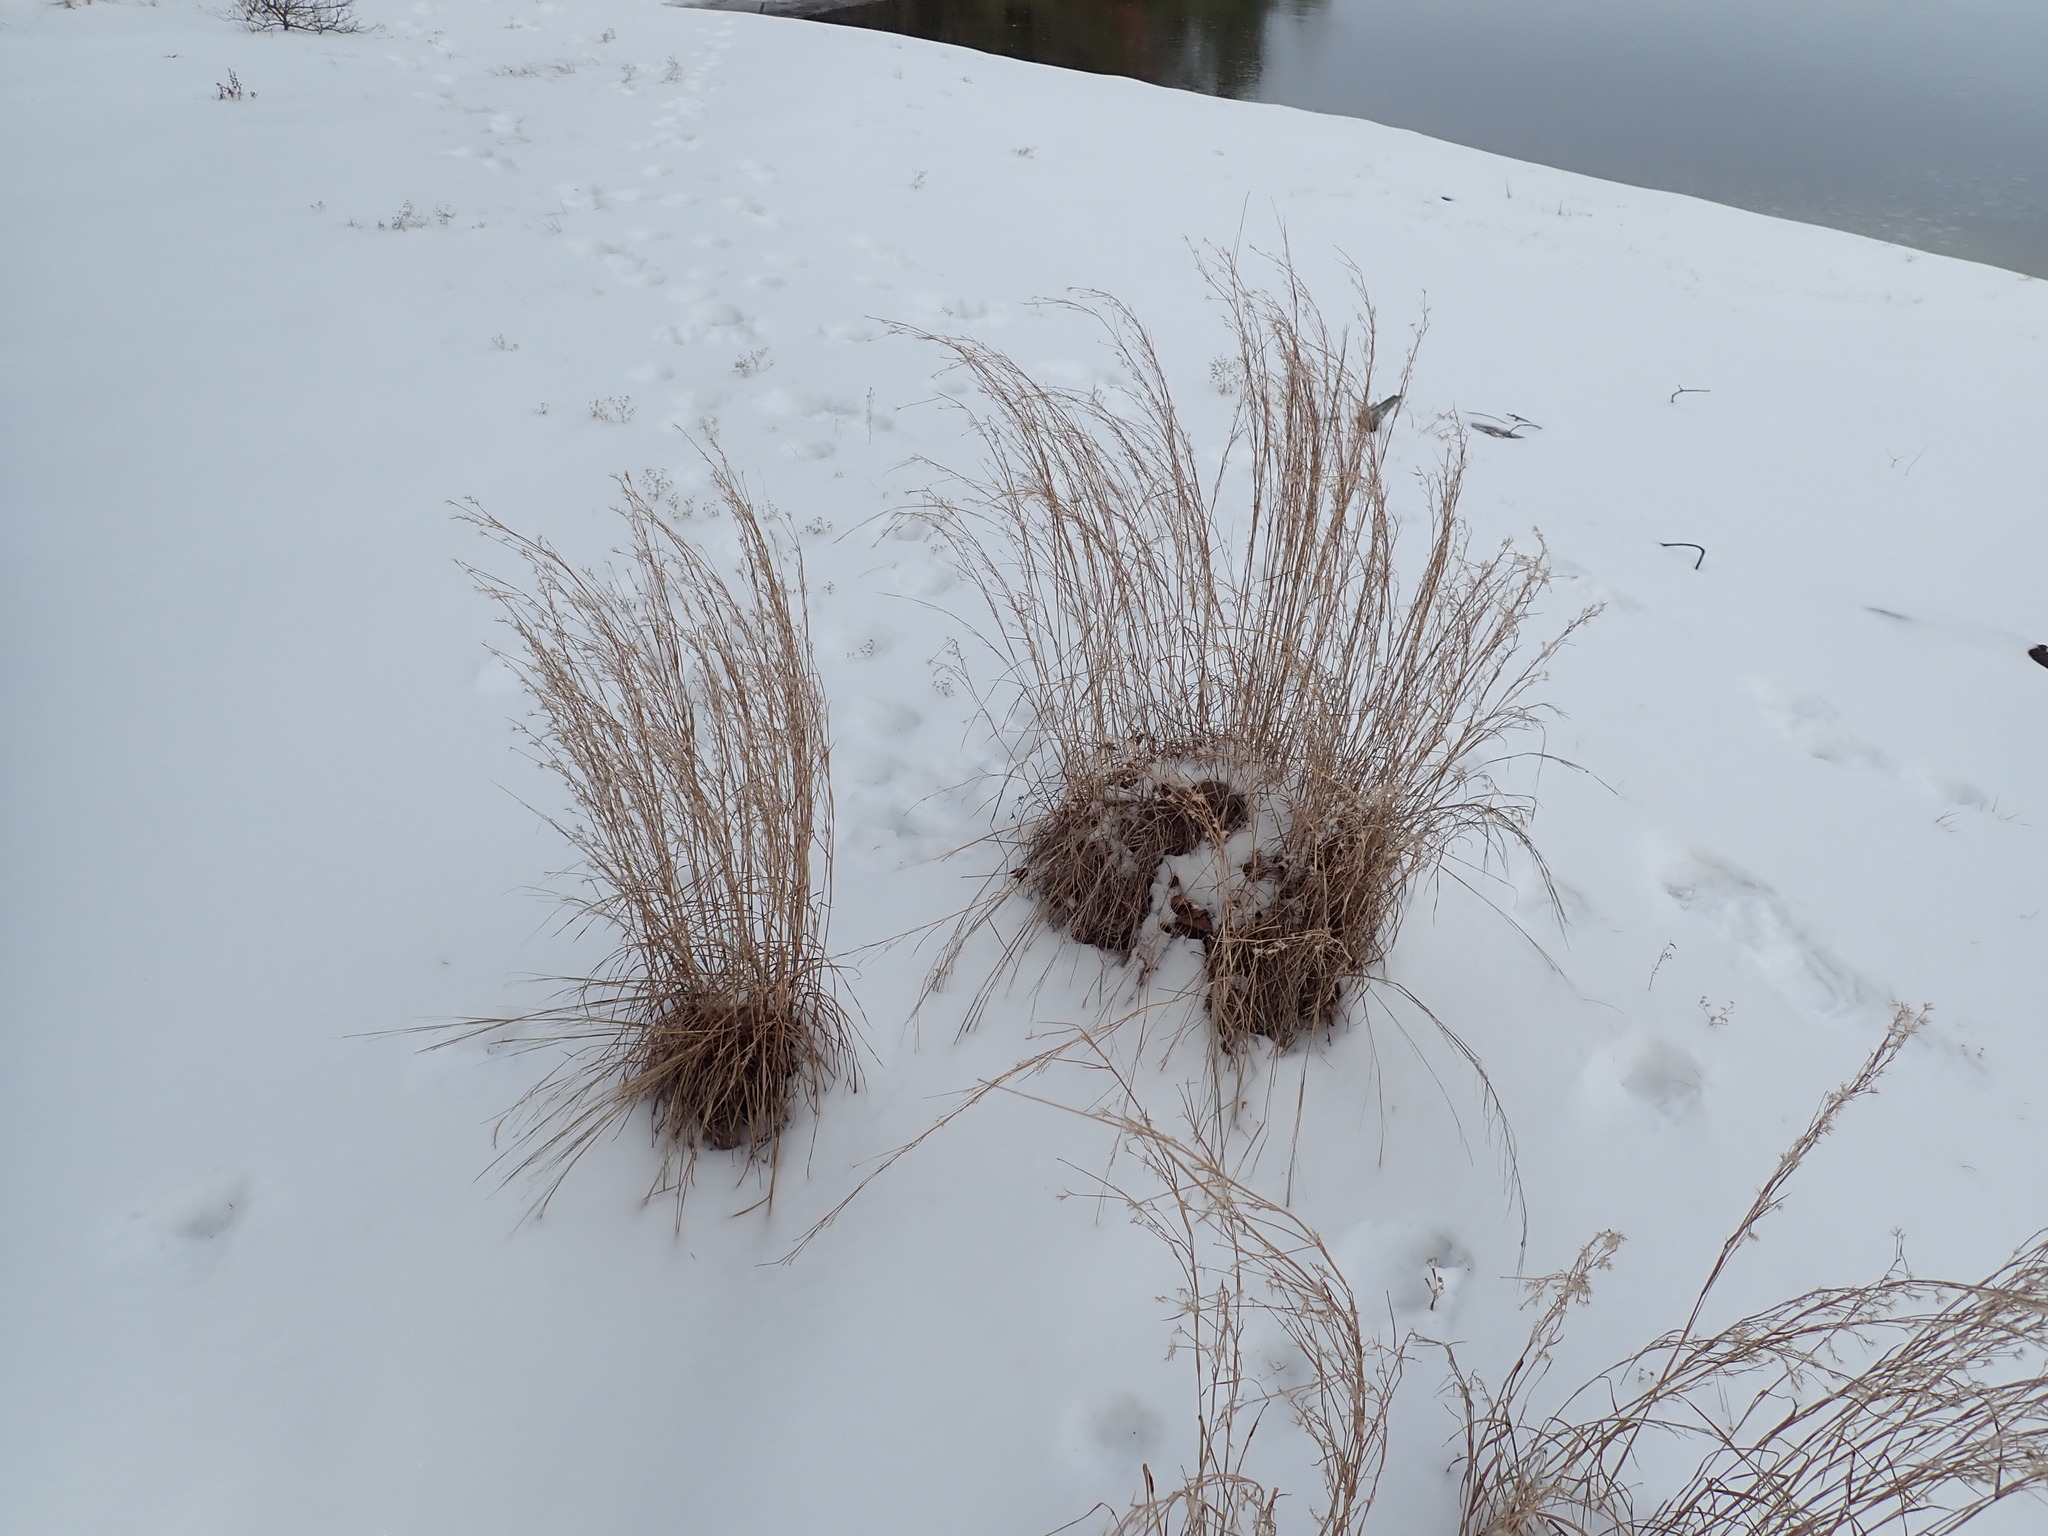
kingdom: Plantae
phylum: Tracheophyta
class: Liliopsida
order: Poales
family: Poaceae
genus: Schizachyrium
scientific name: Schizachyrium scoparium
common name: Little bluestem
